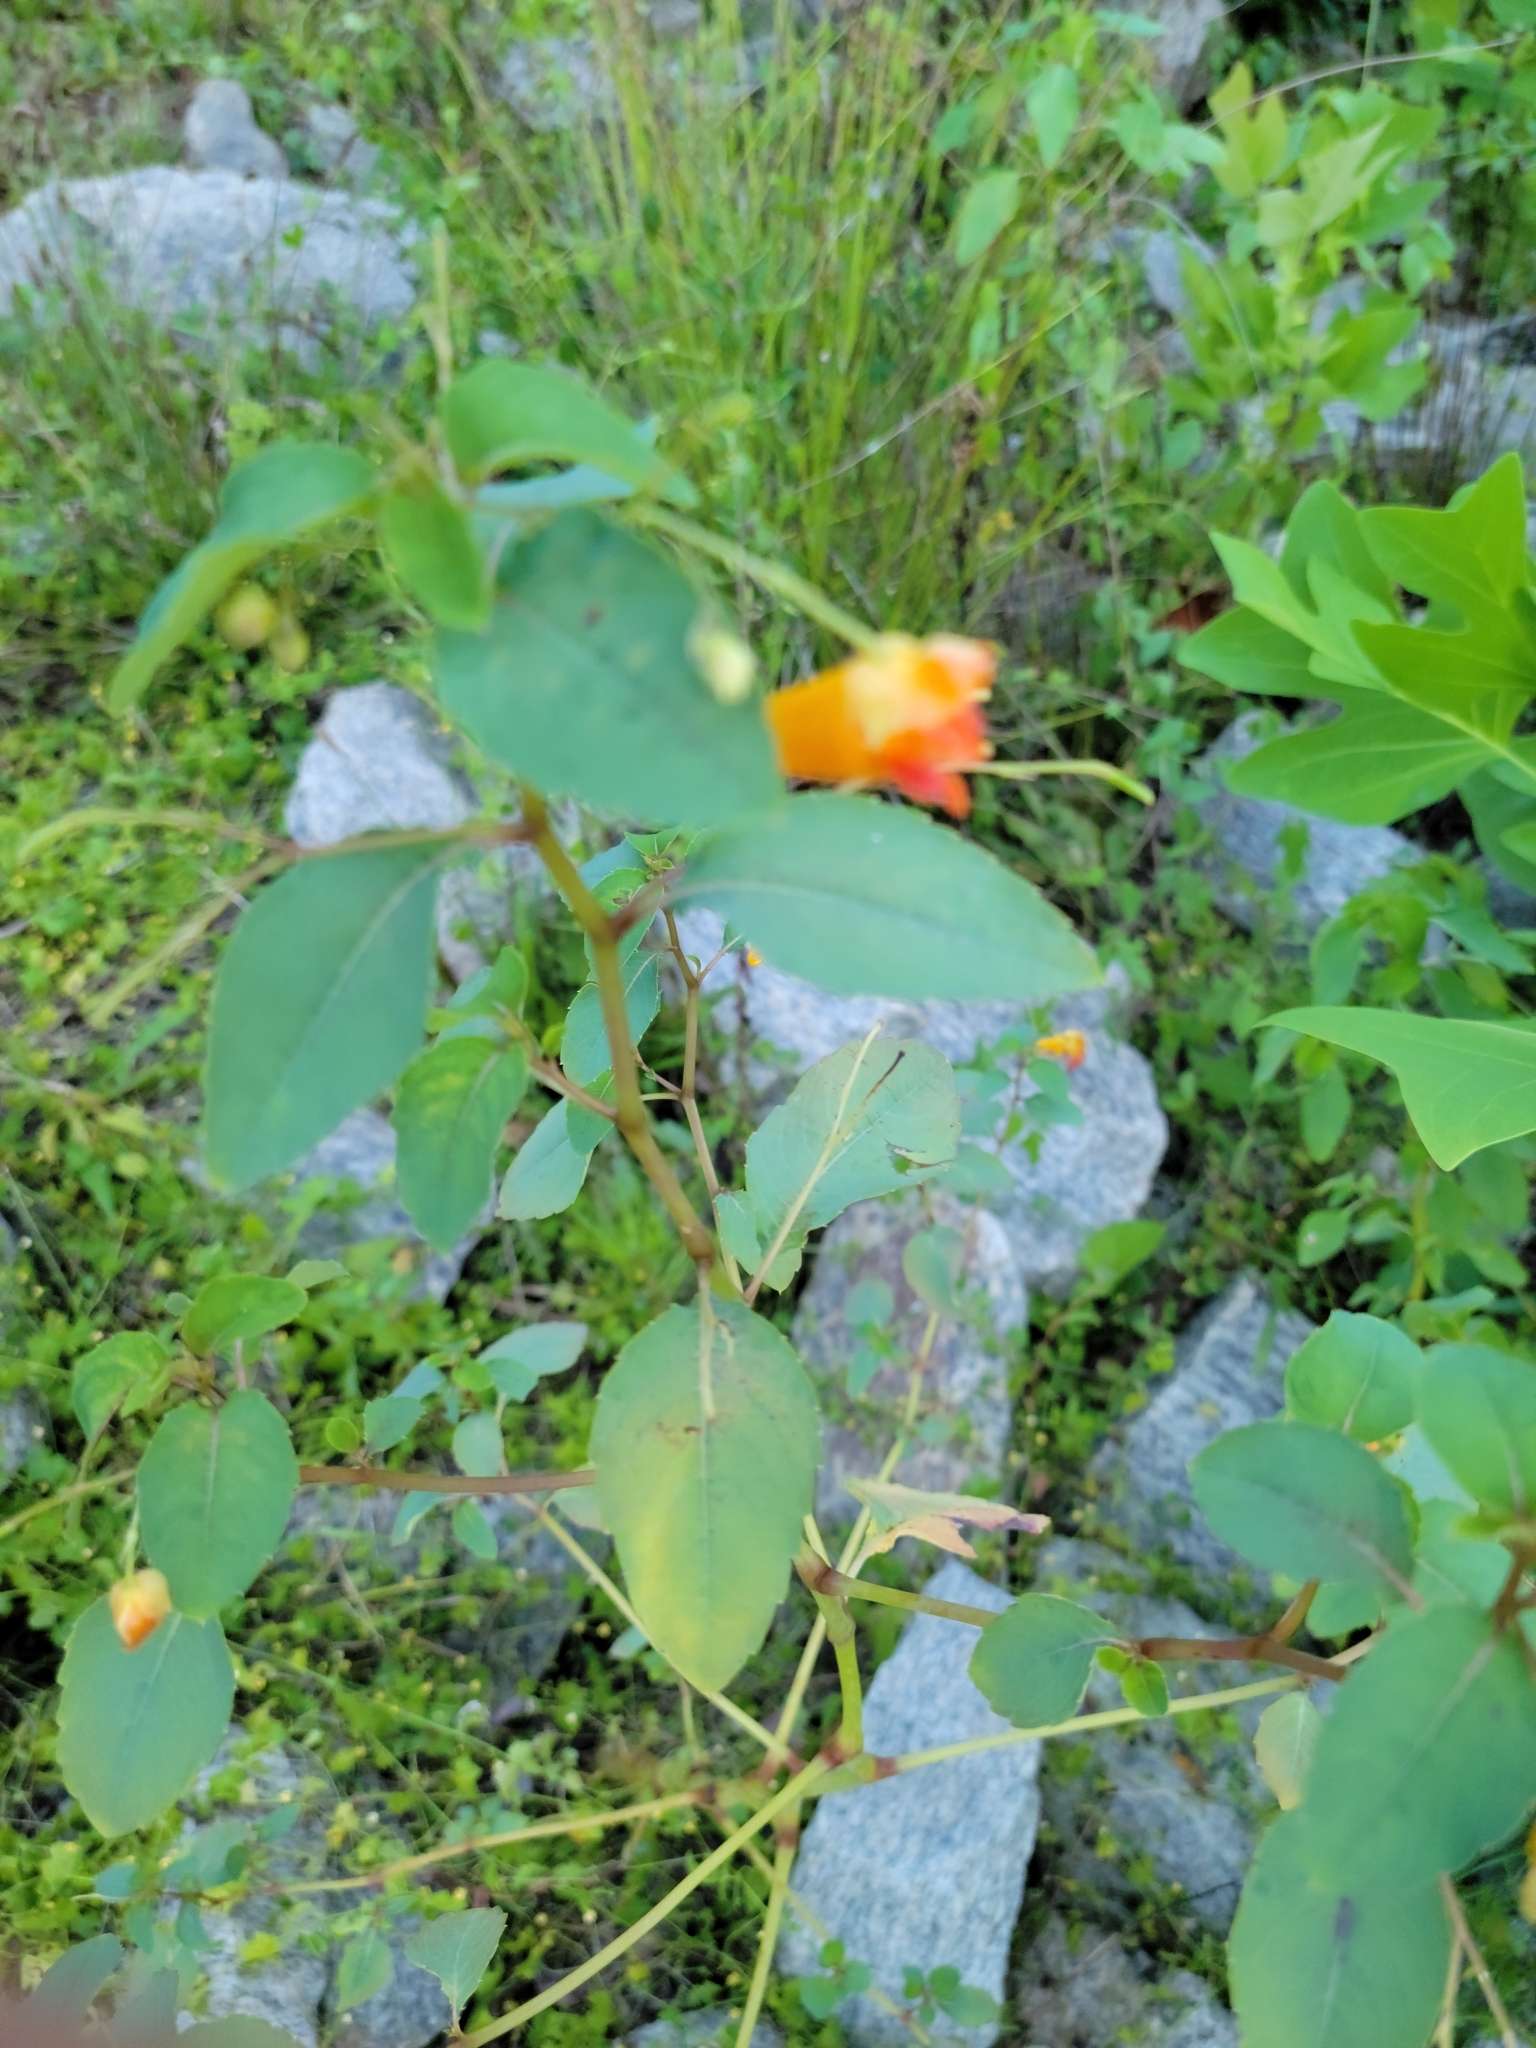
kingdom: Plantae
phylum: Tracheophyta
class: Magnoliopsida
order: Ericales
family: Balsaminaceae
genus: Impatiens
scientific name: Impatiens capensis
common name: Orange balsam
